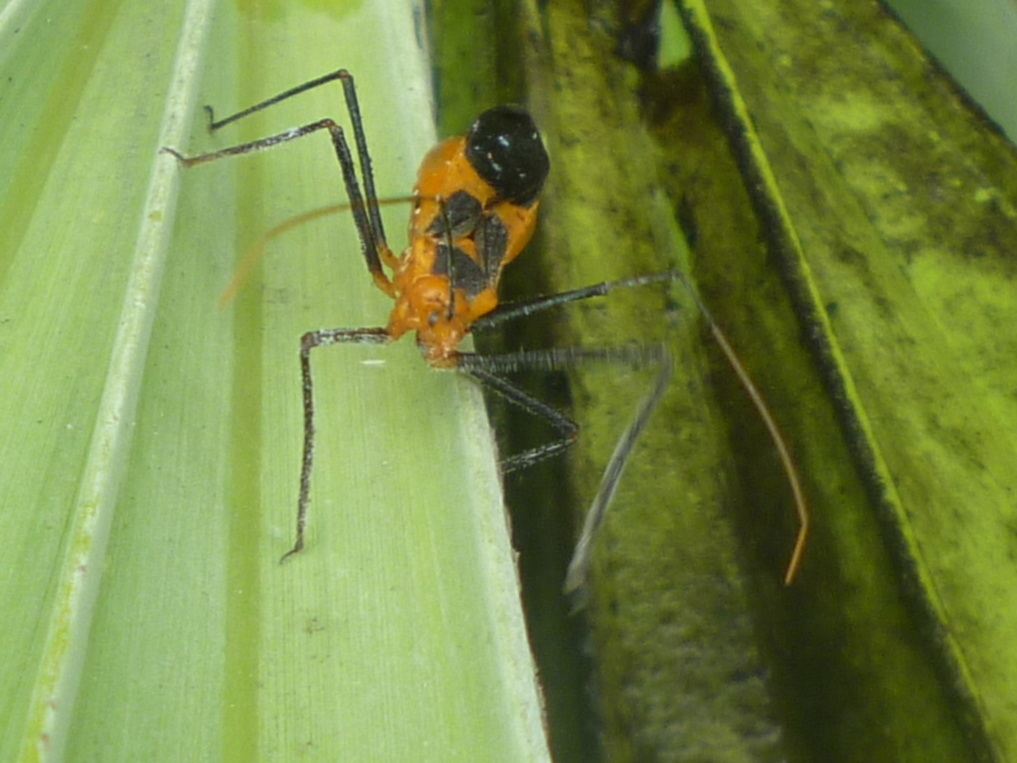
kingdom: Animalia
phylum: Arthropoda
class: Insecta
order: Hemiptera
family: Reduviidae
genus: Zelus
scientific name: Zelus longipes
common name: Milkweed assassin bug
